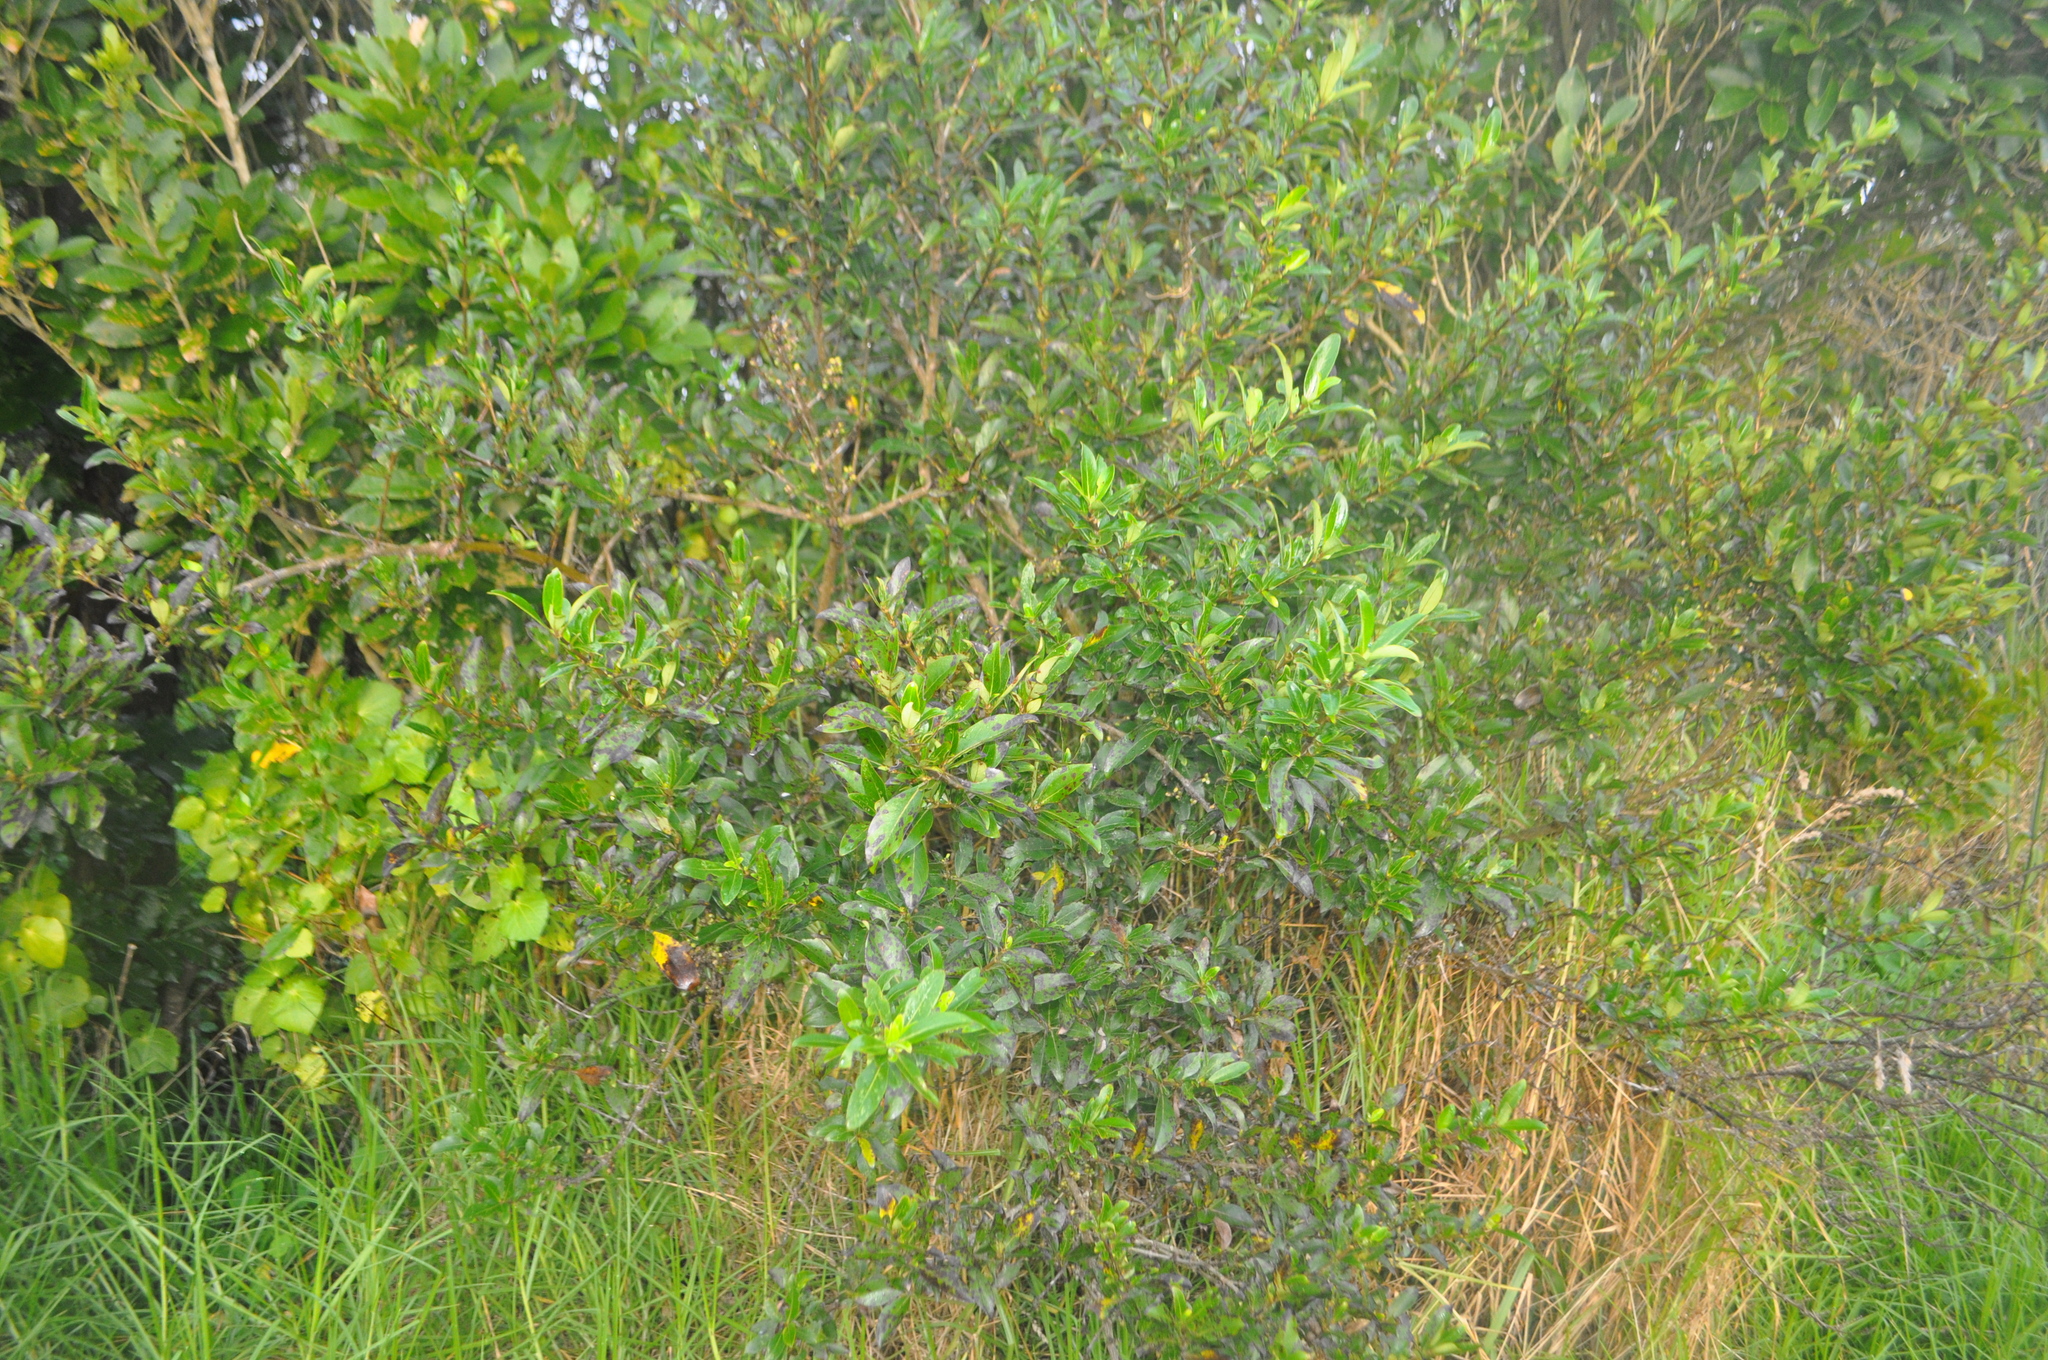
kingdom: Plantae
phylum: Tracheophyta
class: Magnoliopsida
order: Gentianales
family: Rubiaceae
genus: Coprosma
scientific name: Coprosma robusta
